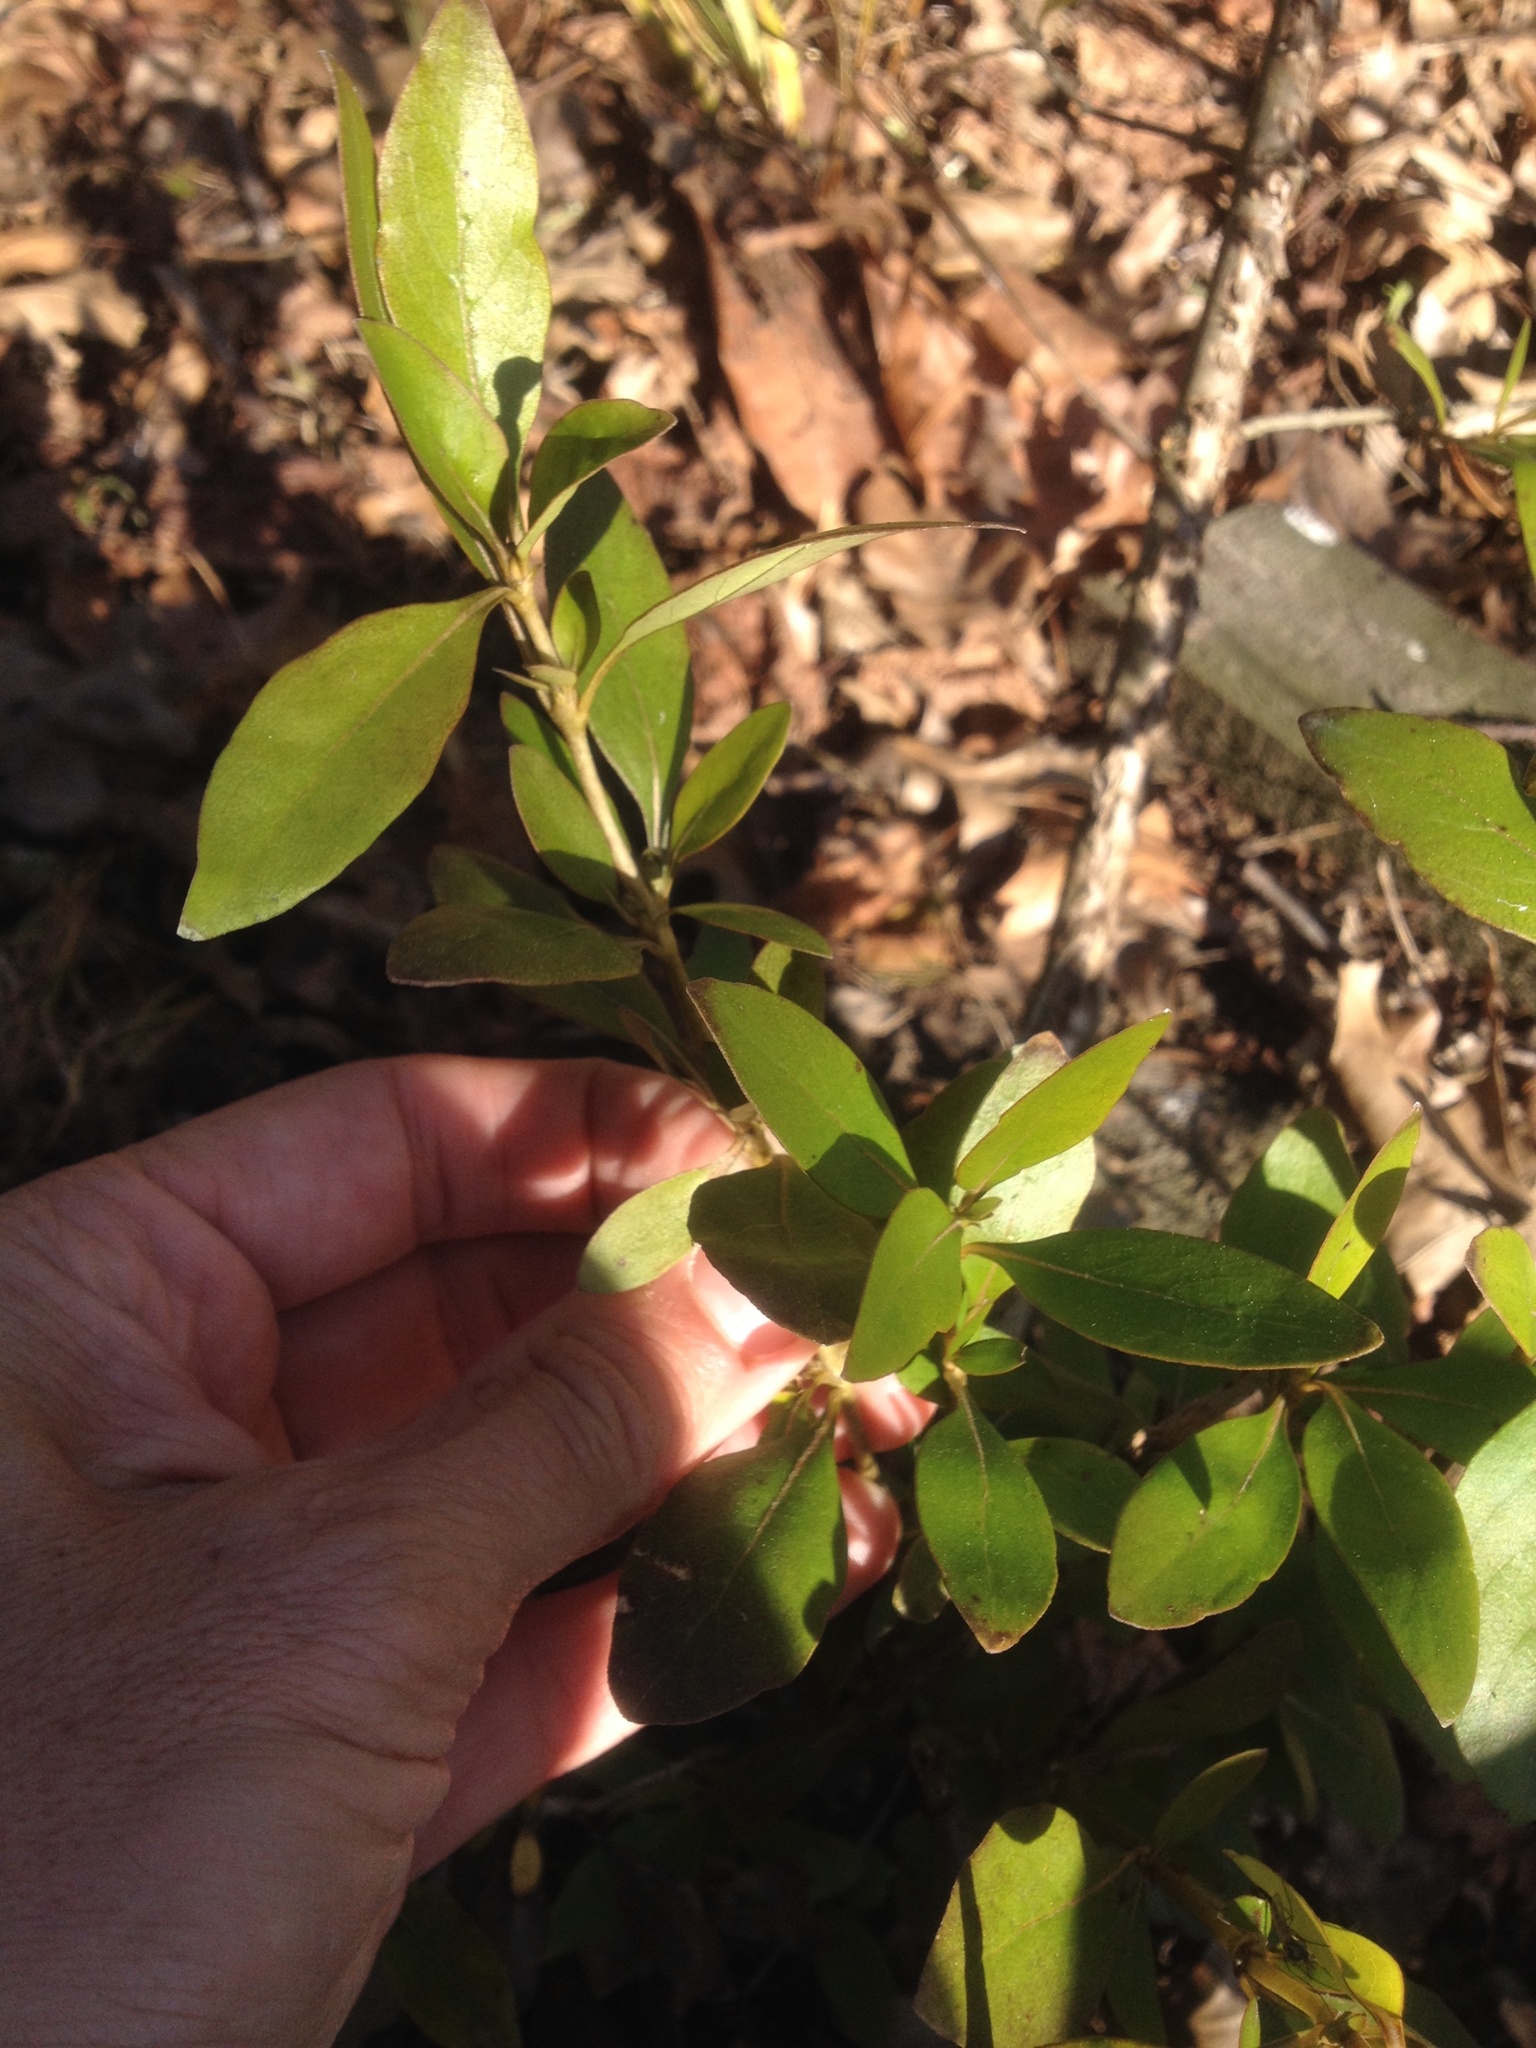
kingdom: Plantae
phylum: Tracheophyta
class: Magnoliopsida
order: Gentianales
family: Rubiaceae
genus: Coprosma
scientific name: Coprosma cunninghamii
